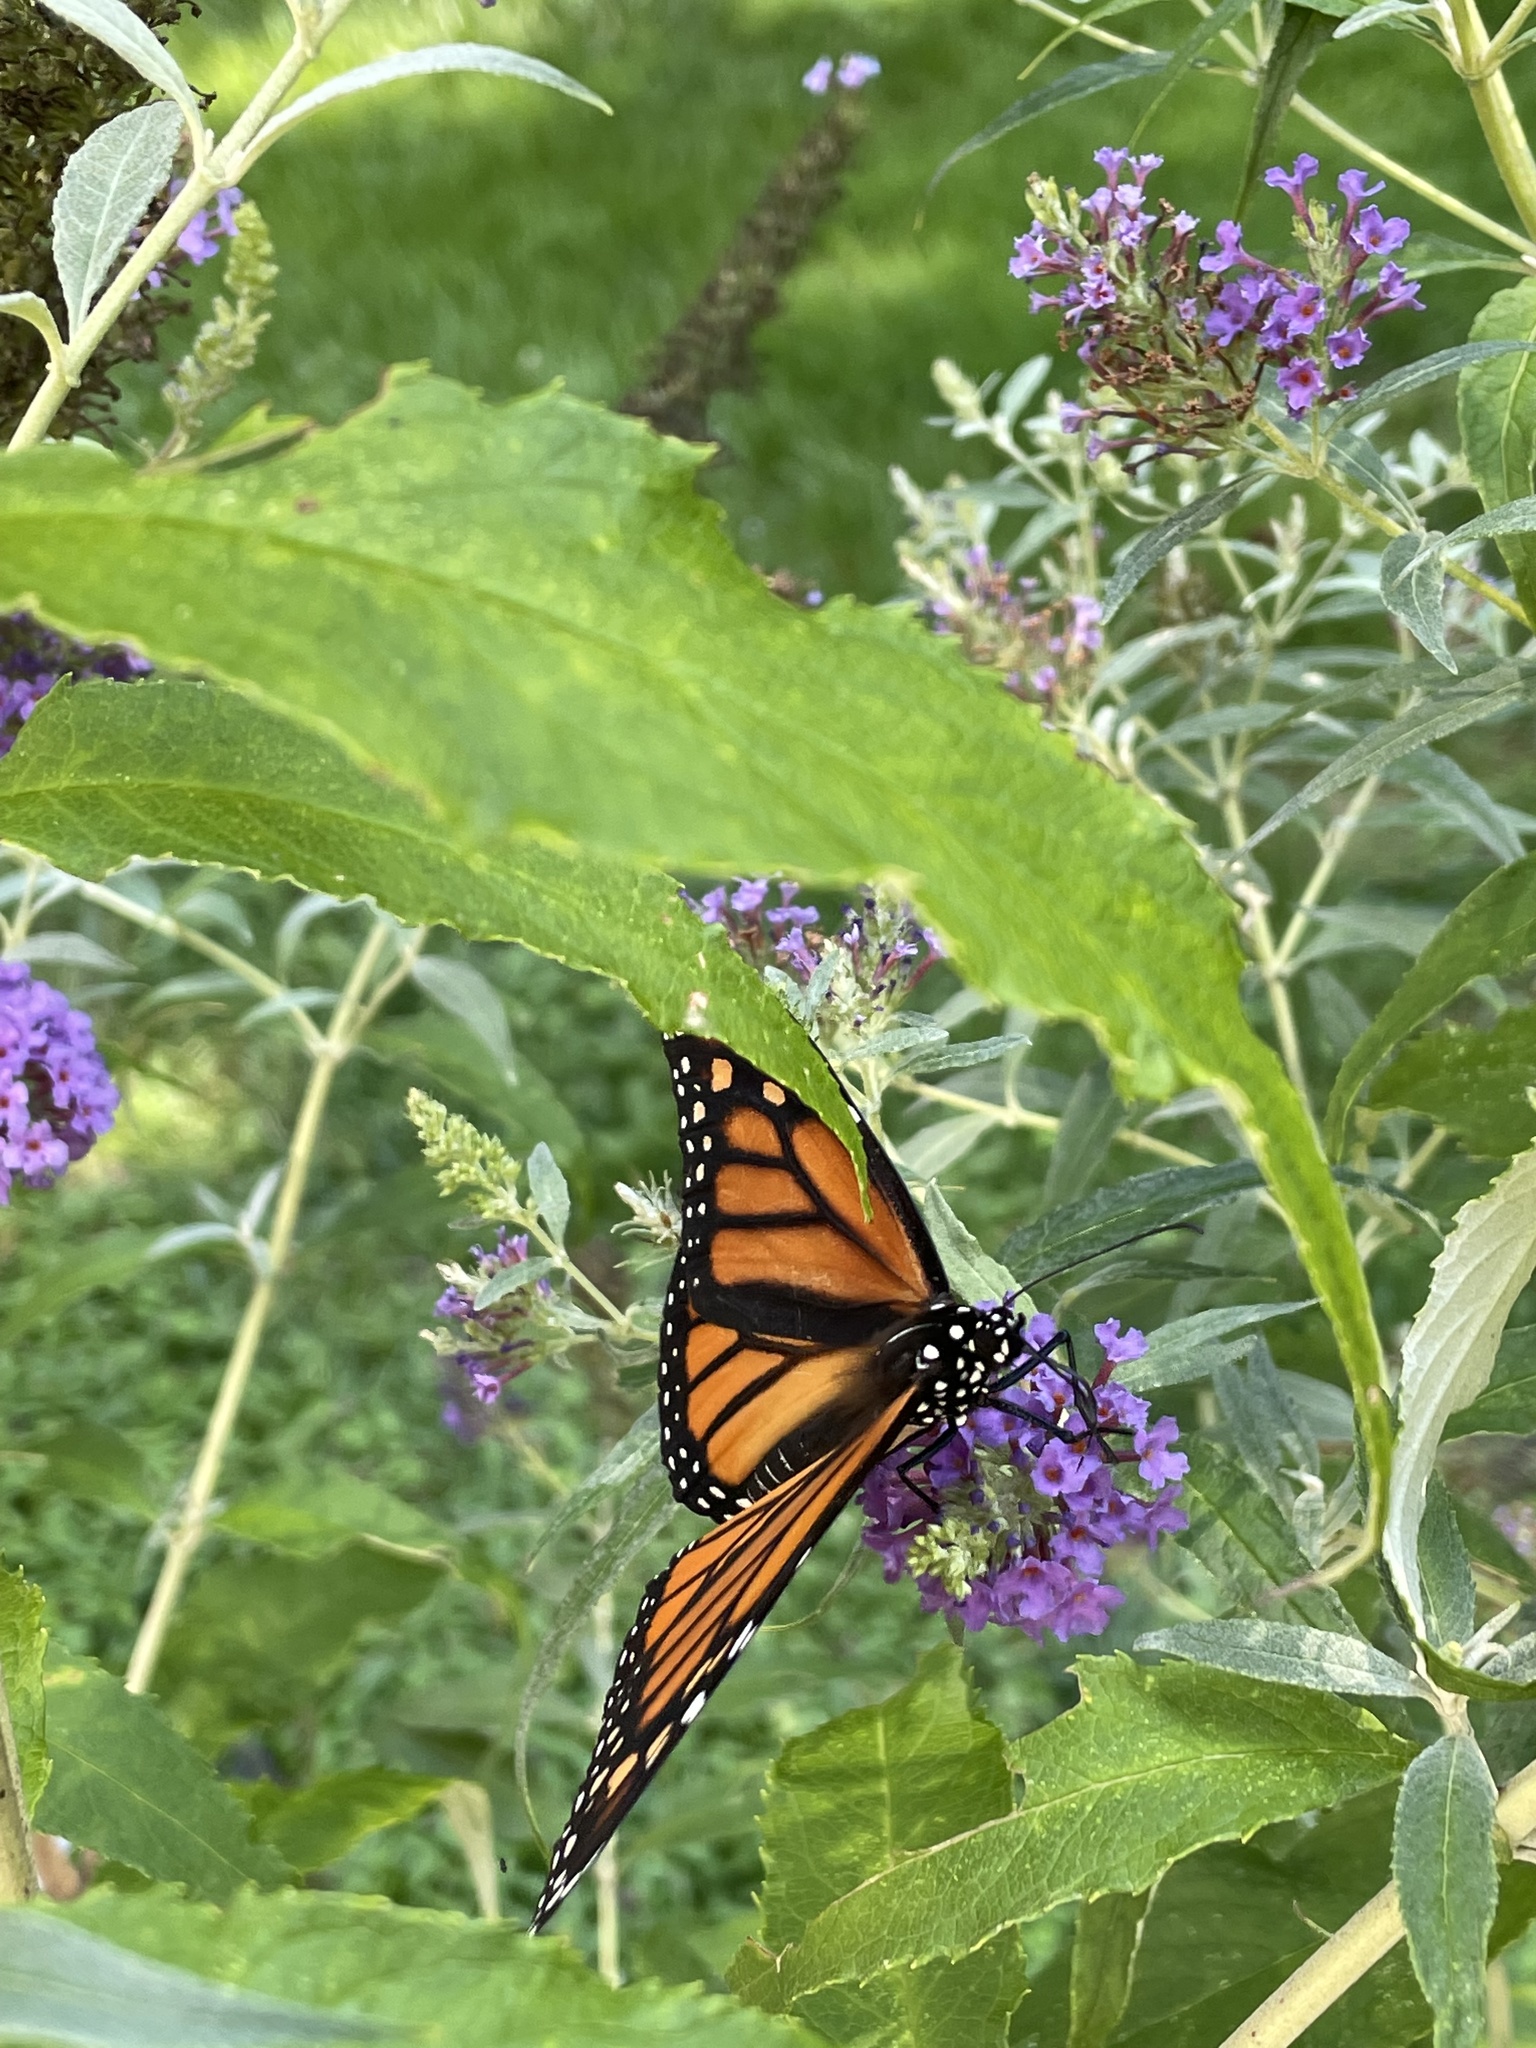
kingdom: Animalia
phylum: Arthropoda
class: Insecta
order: Lepidoptera
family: Nymphalidae
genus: Danaus
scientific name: Danaus plexippus
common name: Monarch
